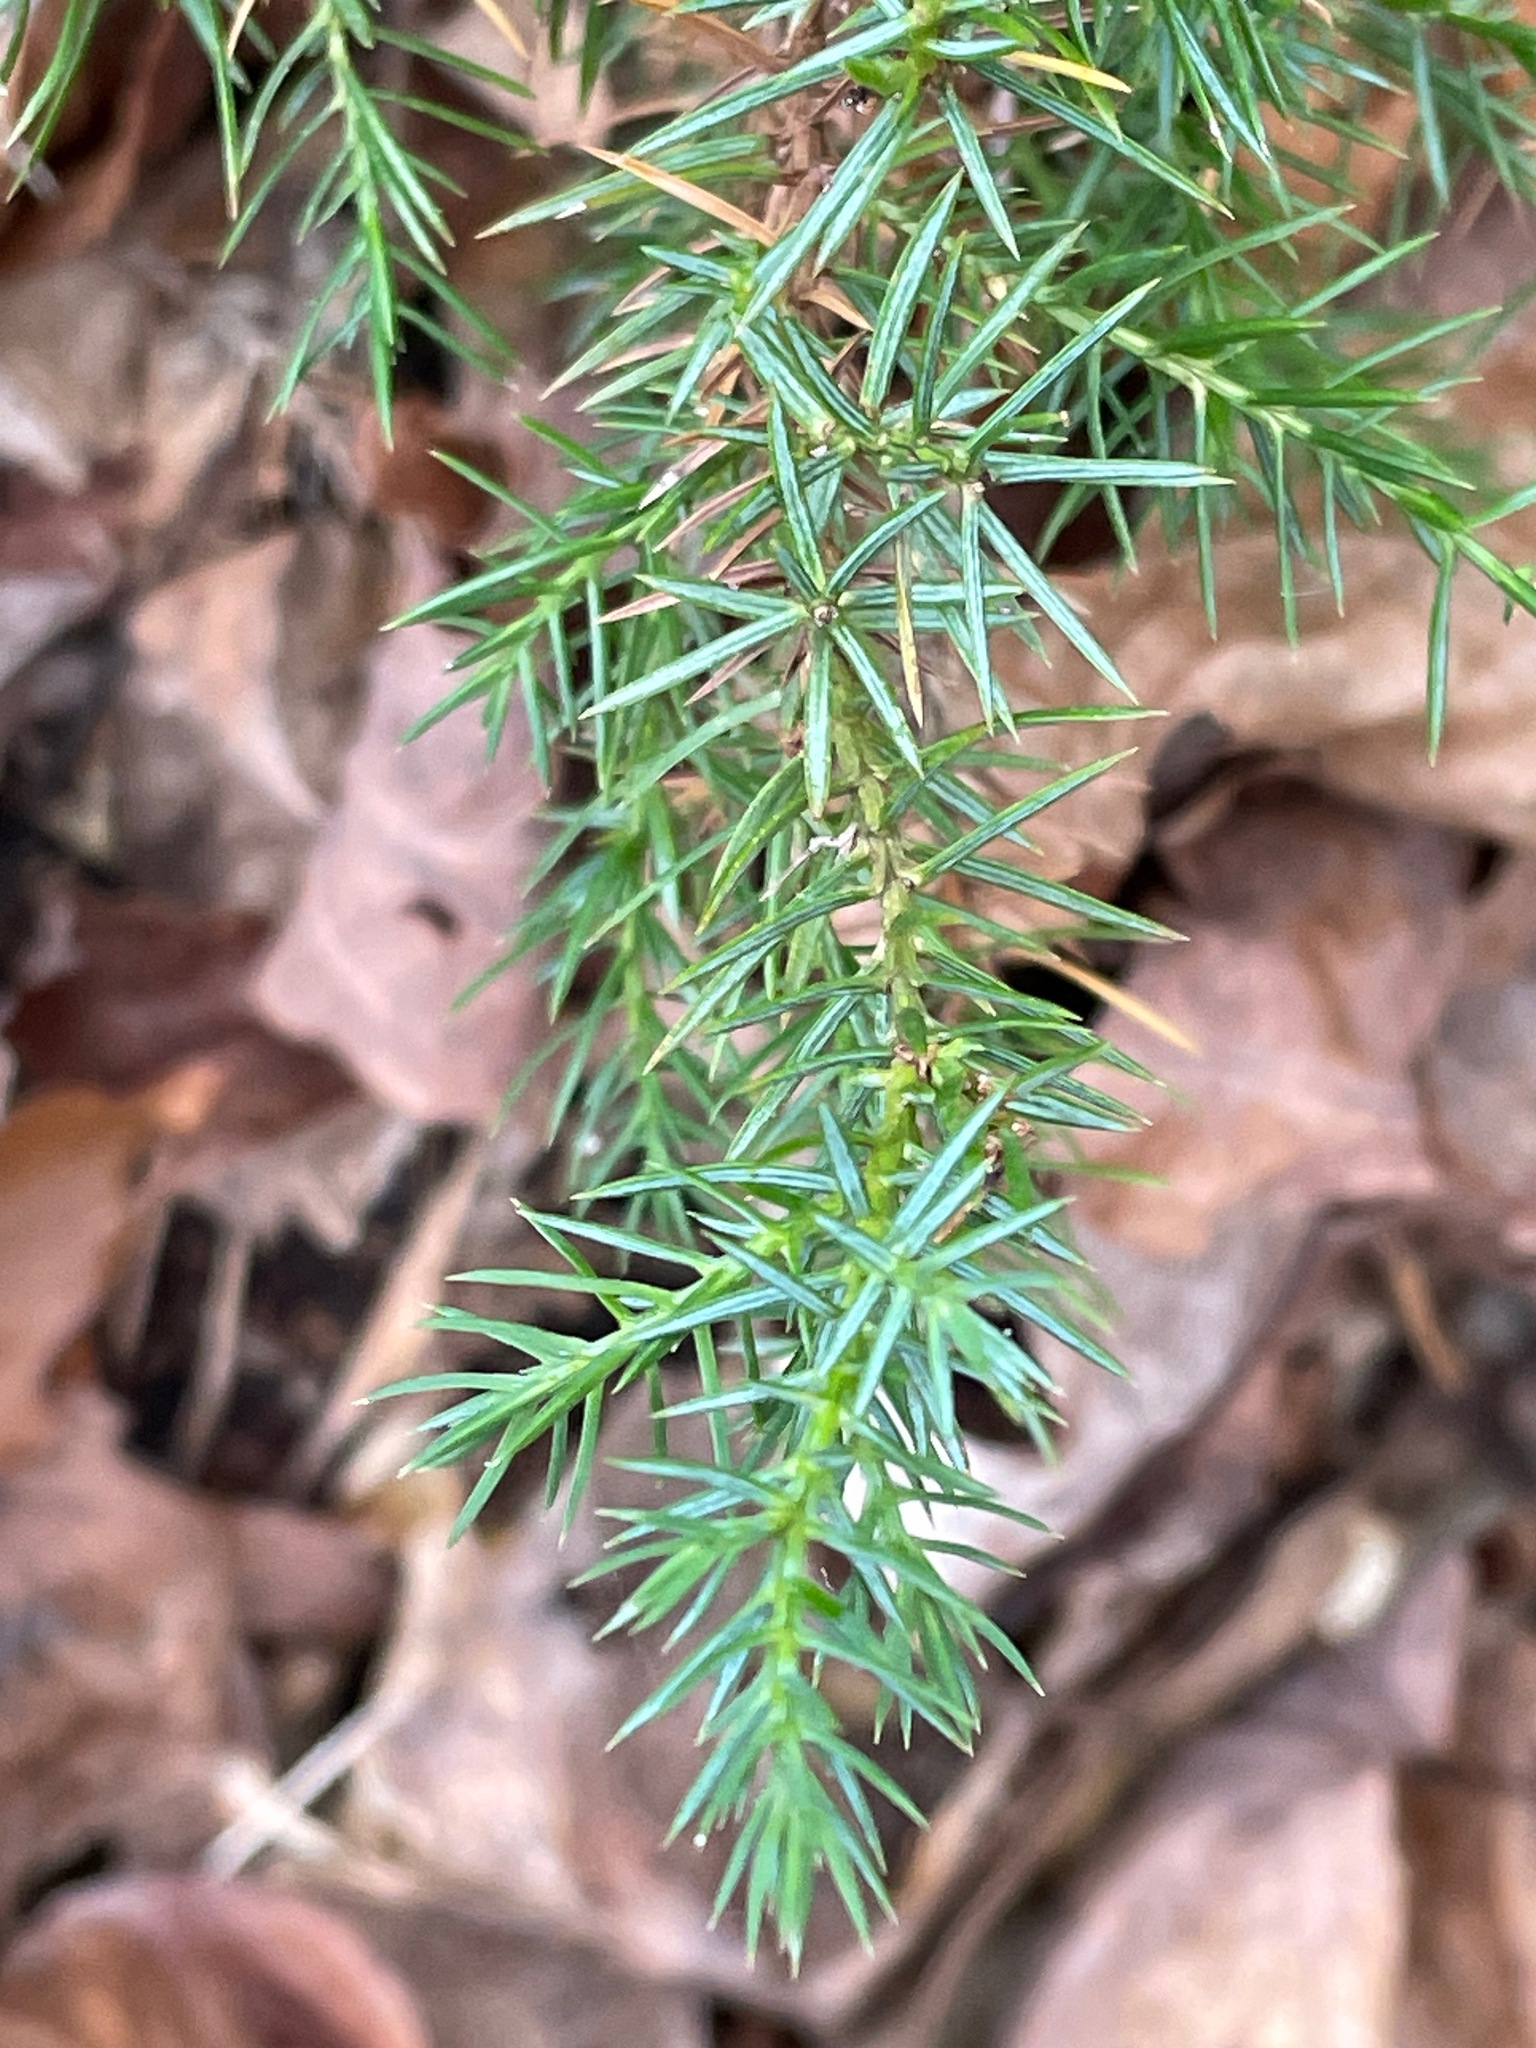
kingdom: Plantae
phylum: Tracheophyta
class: Pinopsida
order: Pinales
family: Cupressaceae
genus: Juniperus
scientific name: Juniperus virginiana
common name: Red juniper
